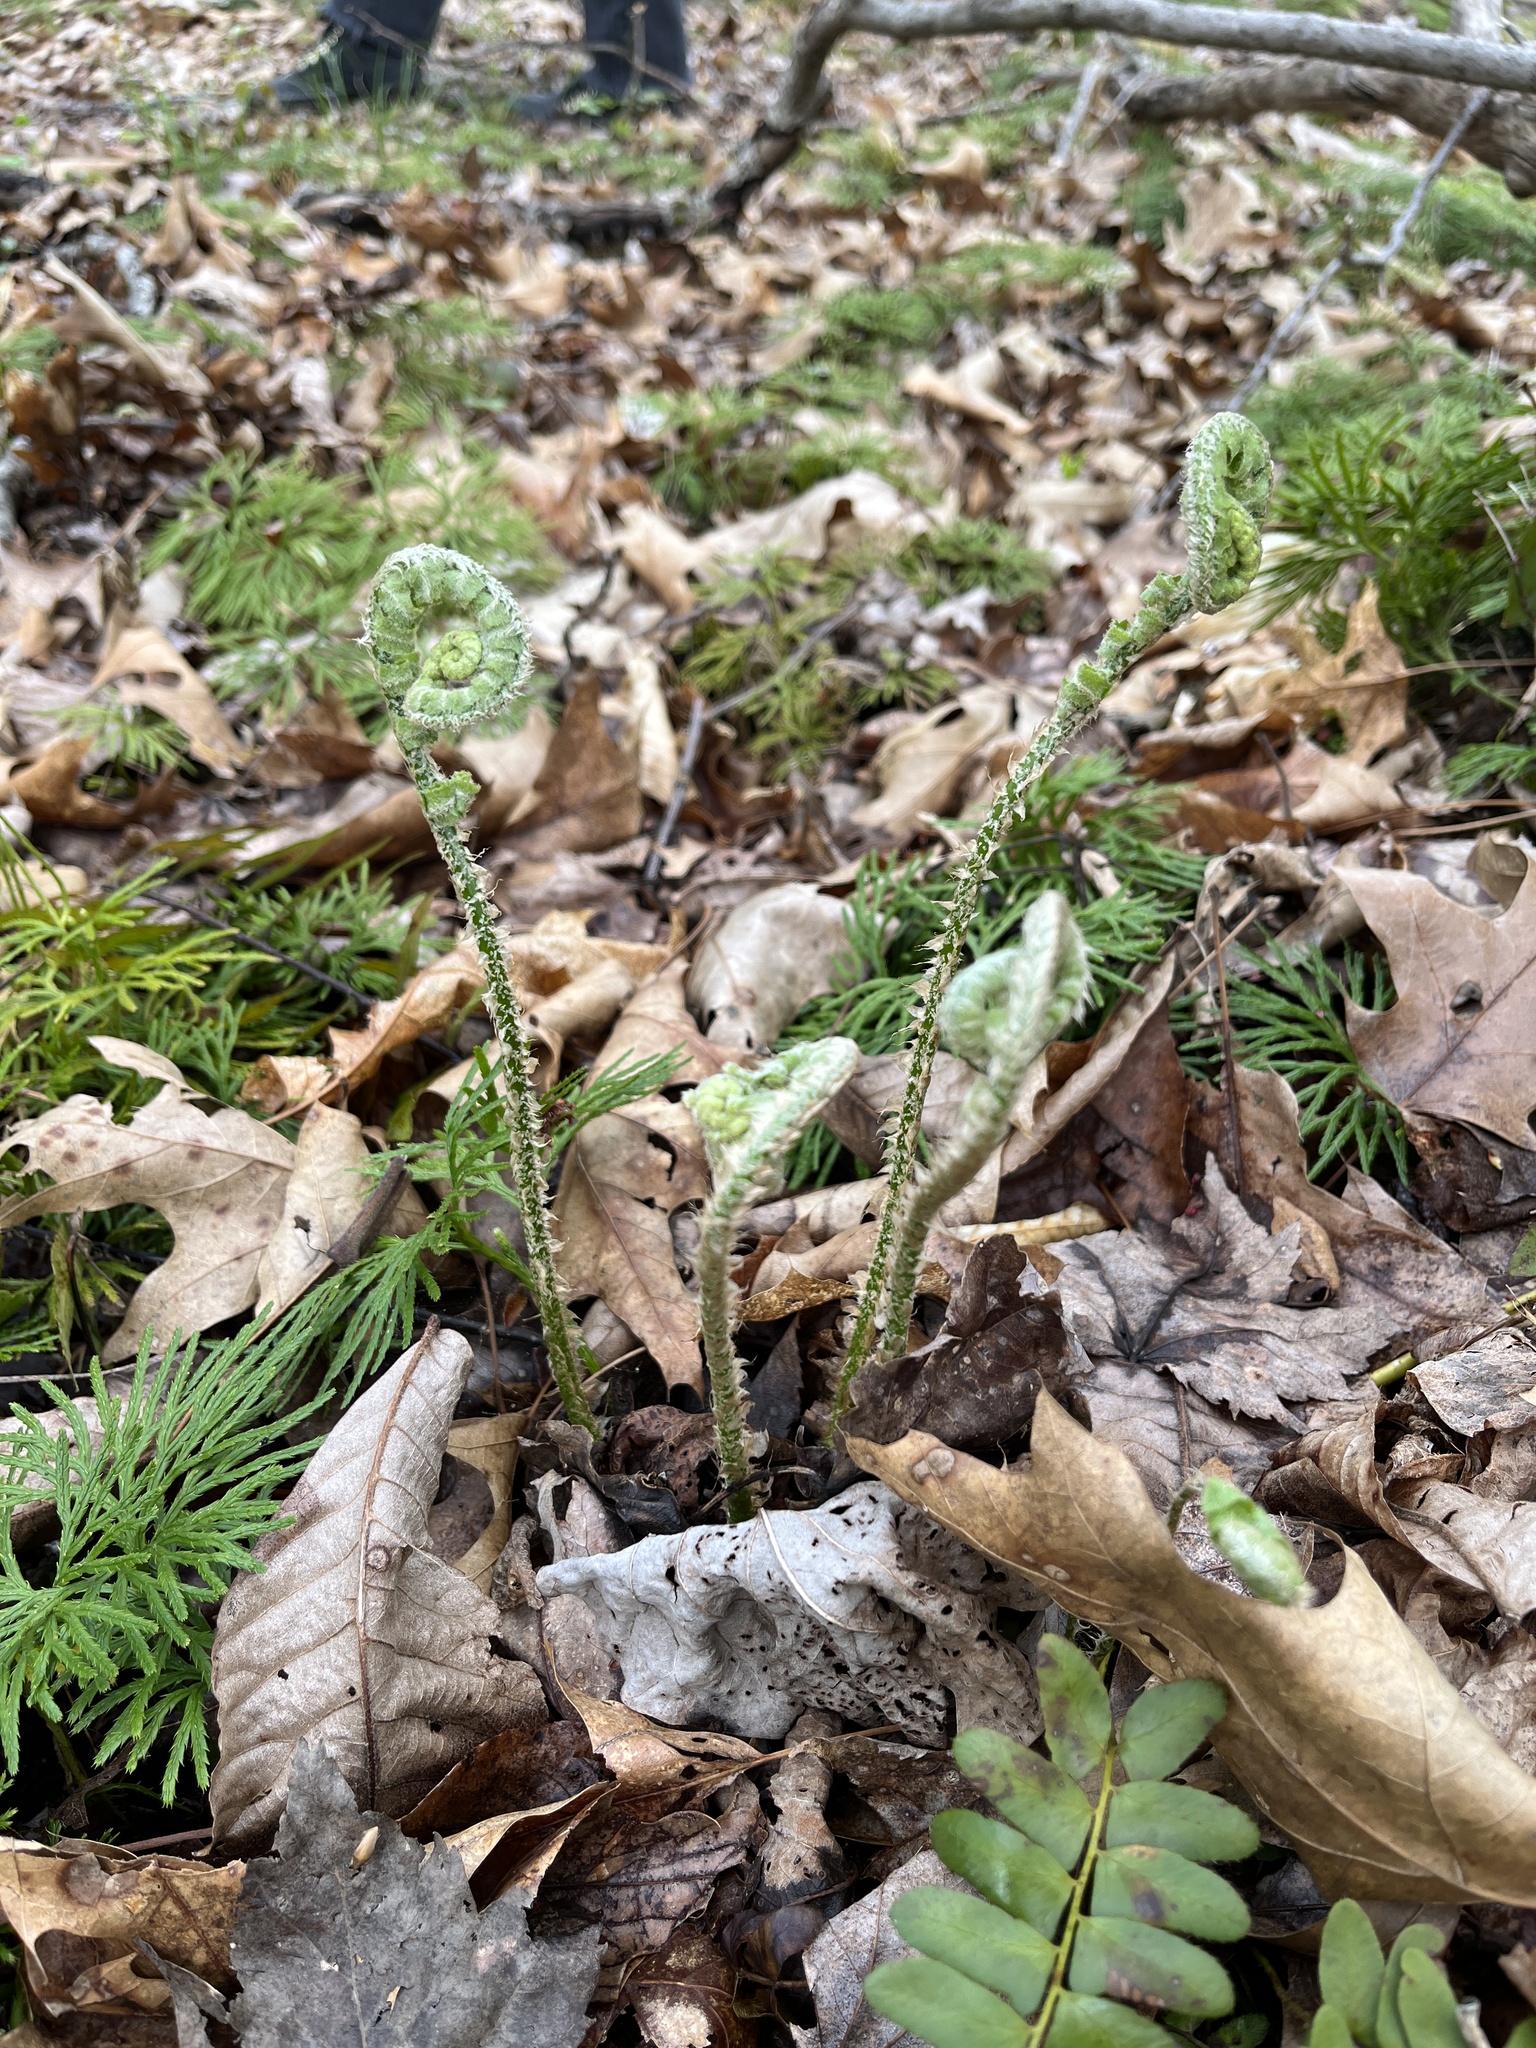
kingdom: Plantae
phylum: Tracheophyta
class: Polypodiopsida
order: Polypodiales
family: Dryopteridaceae
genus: Polystichum
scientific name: Polystichum acrostichoides
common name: Christmas fern
